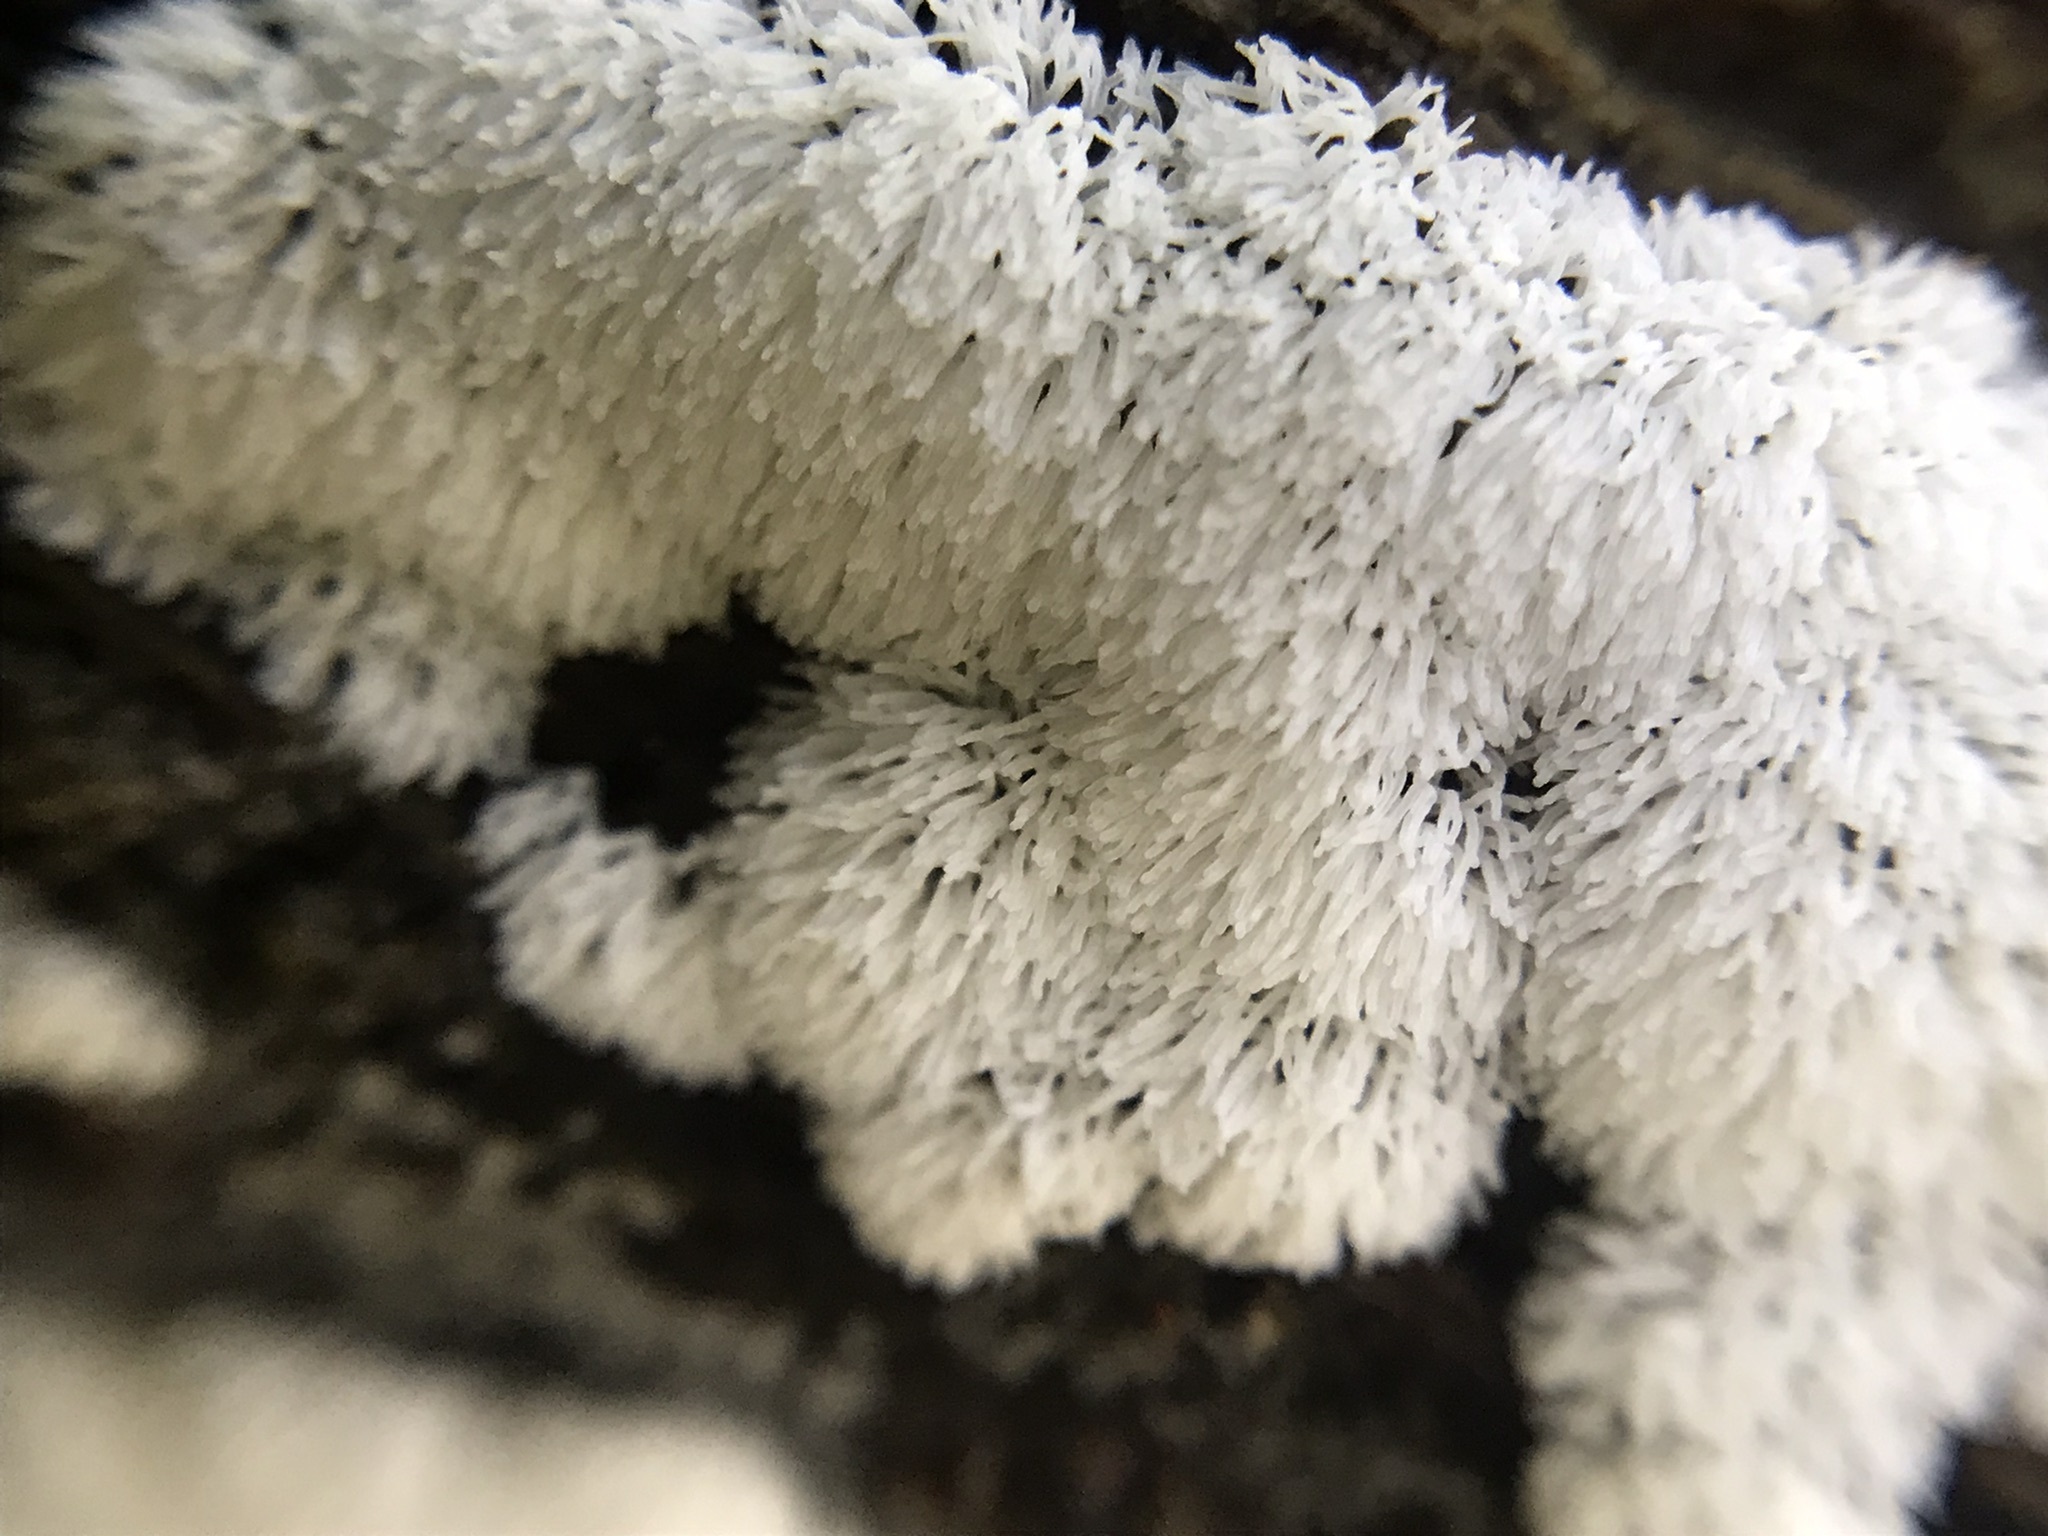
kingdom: Protozoa
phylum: Mycetozoa
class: Protosteliomycetes
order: Ceratiomyxales
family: Ceratiomyxaceae
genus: Ceratiomyxa
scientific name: Ceratiomyxa fruticulosa
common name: Honeycomb coral slime mold
